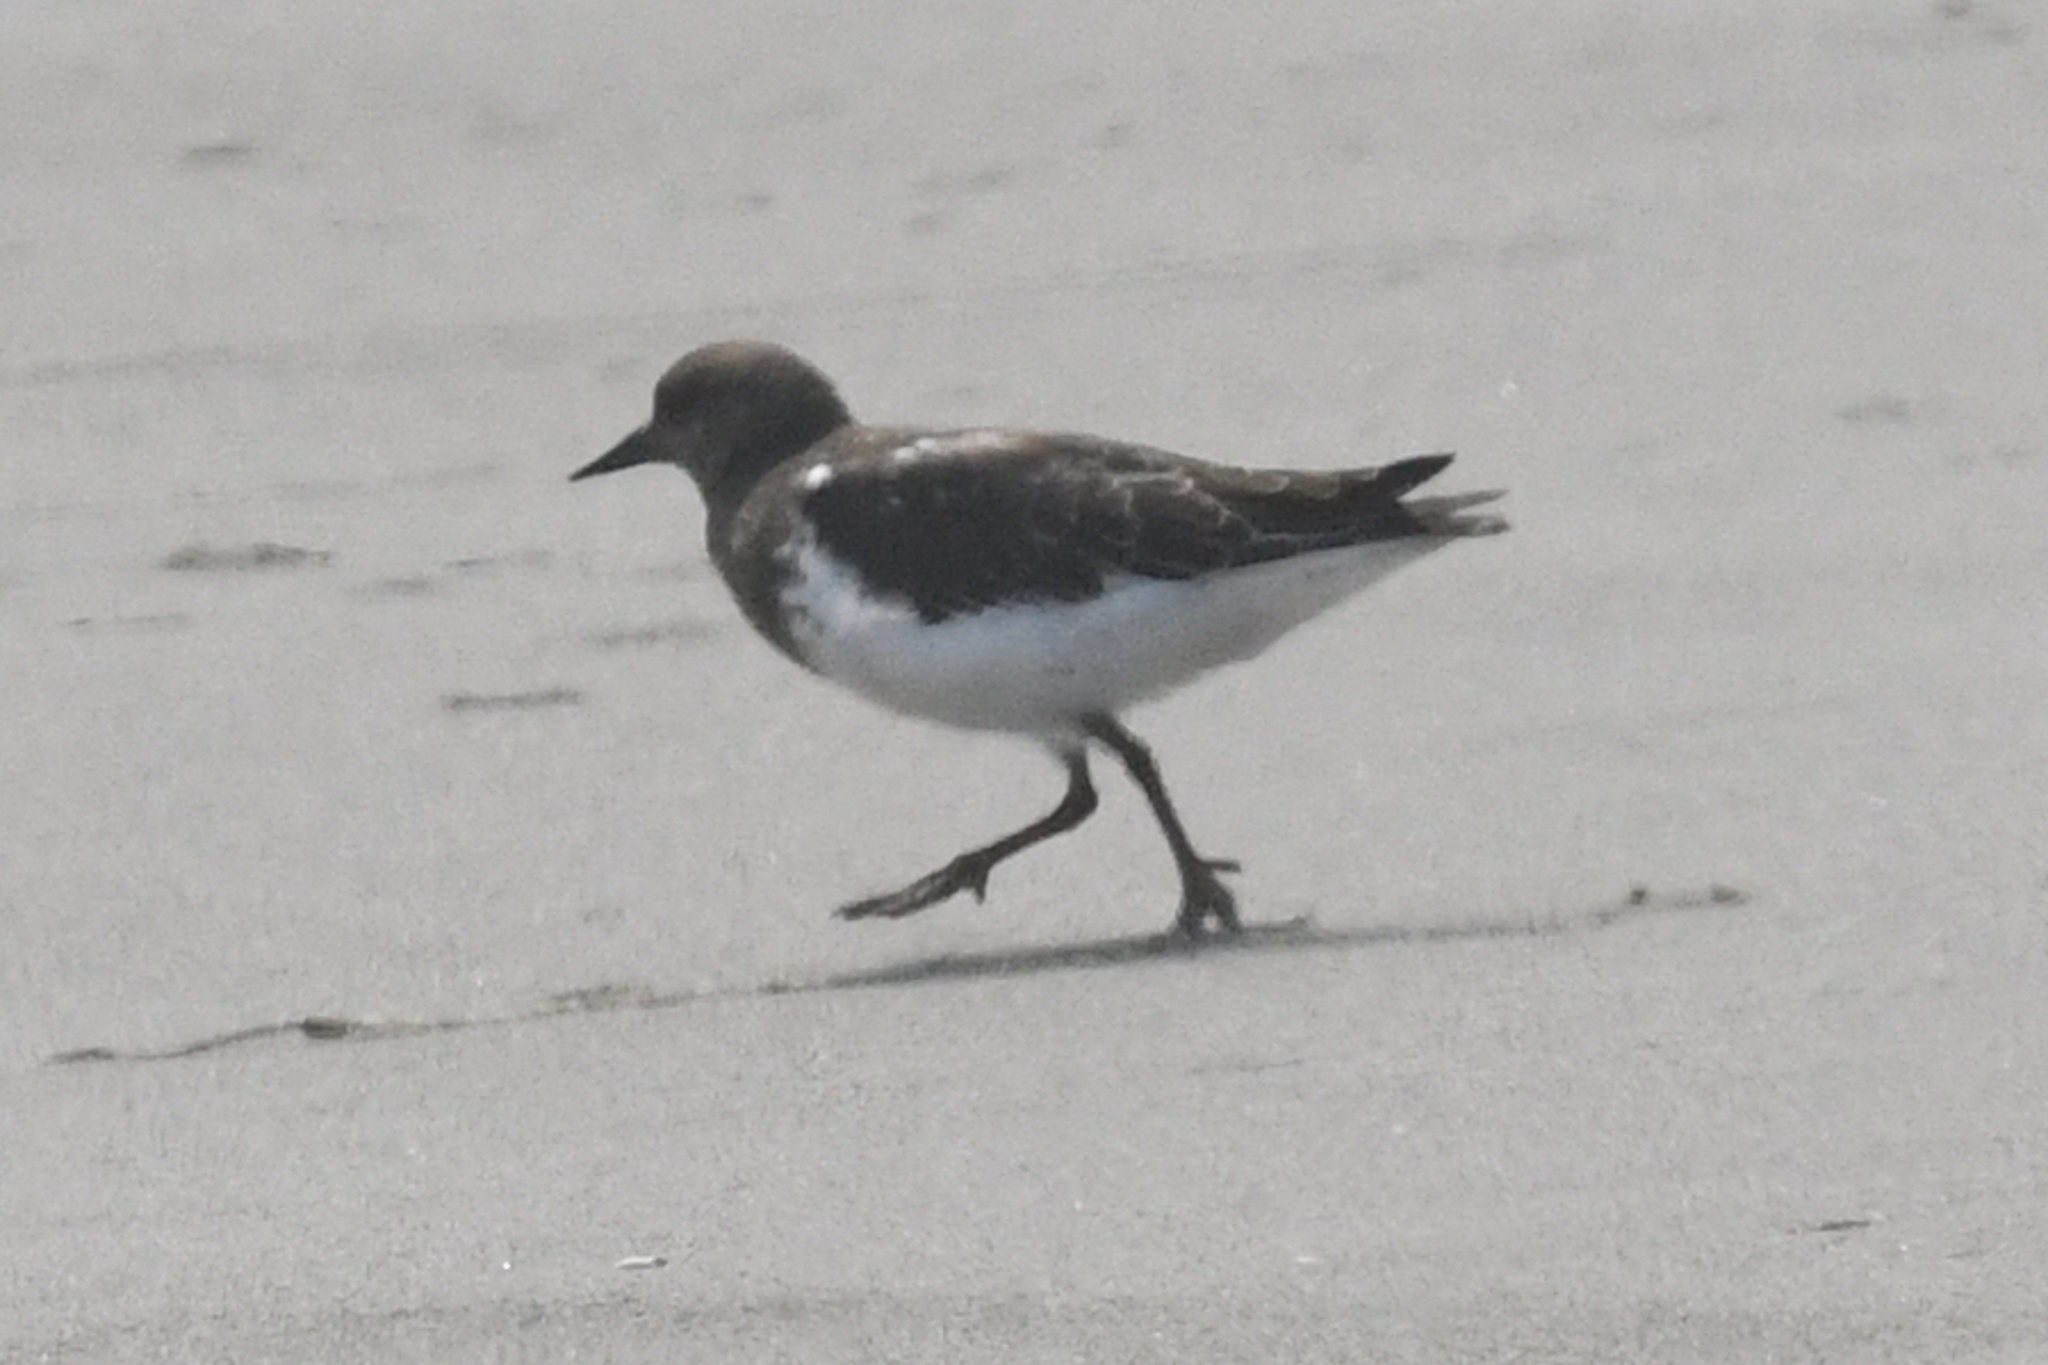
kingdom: Animalia
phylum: Chordata
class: Aves
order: Charadriiformes
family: Scolopacidae
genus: Arenaria
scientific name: Arenaria melanocephala
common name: Black turnstone
